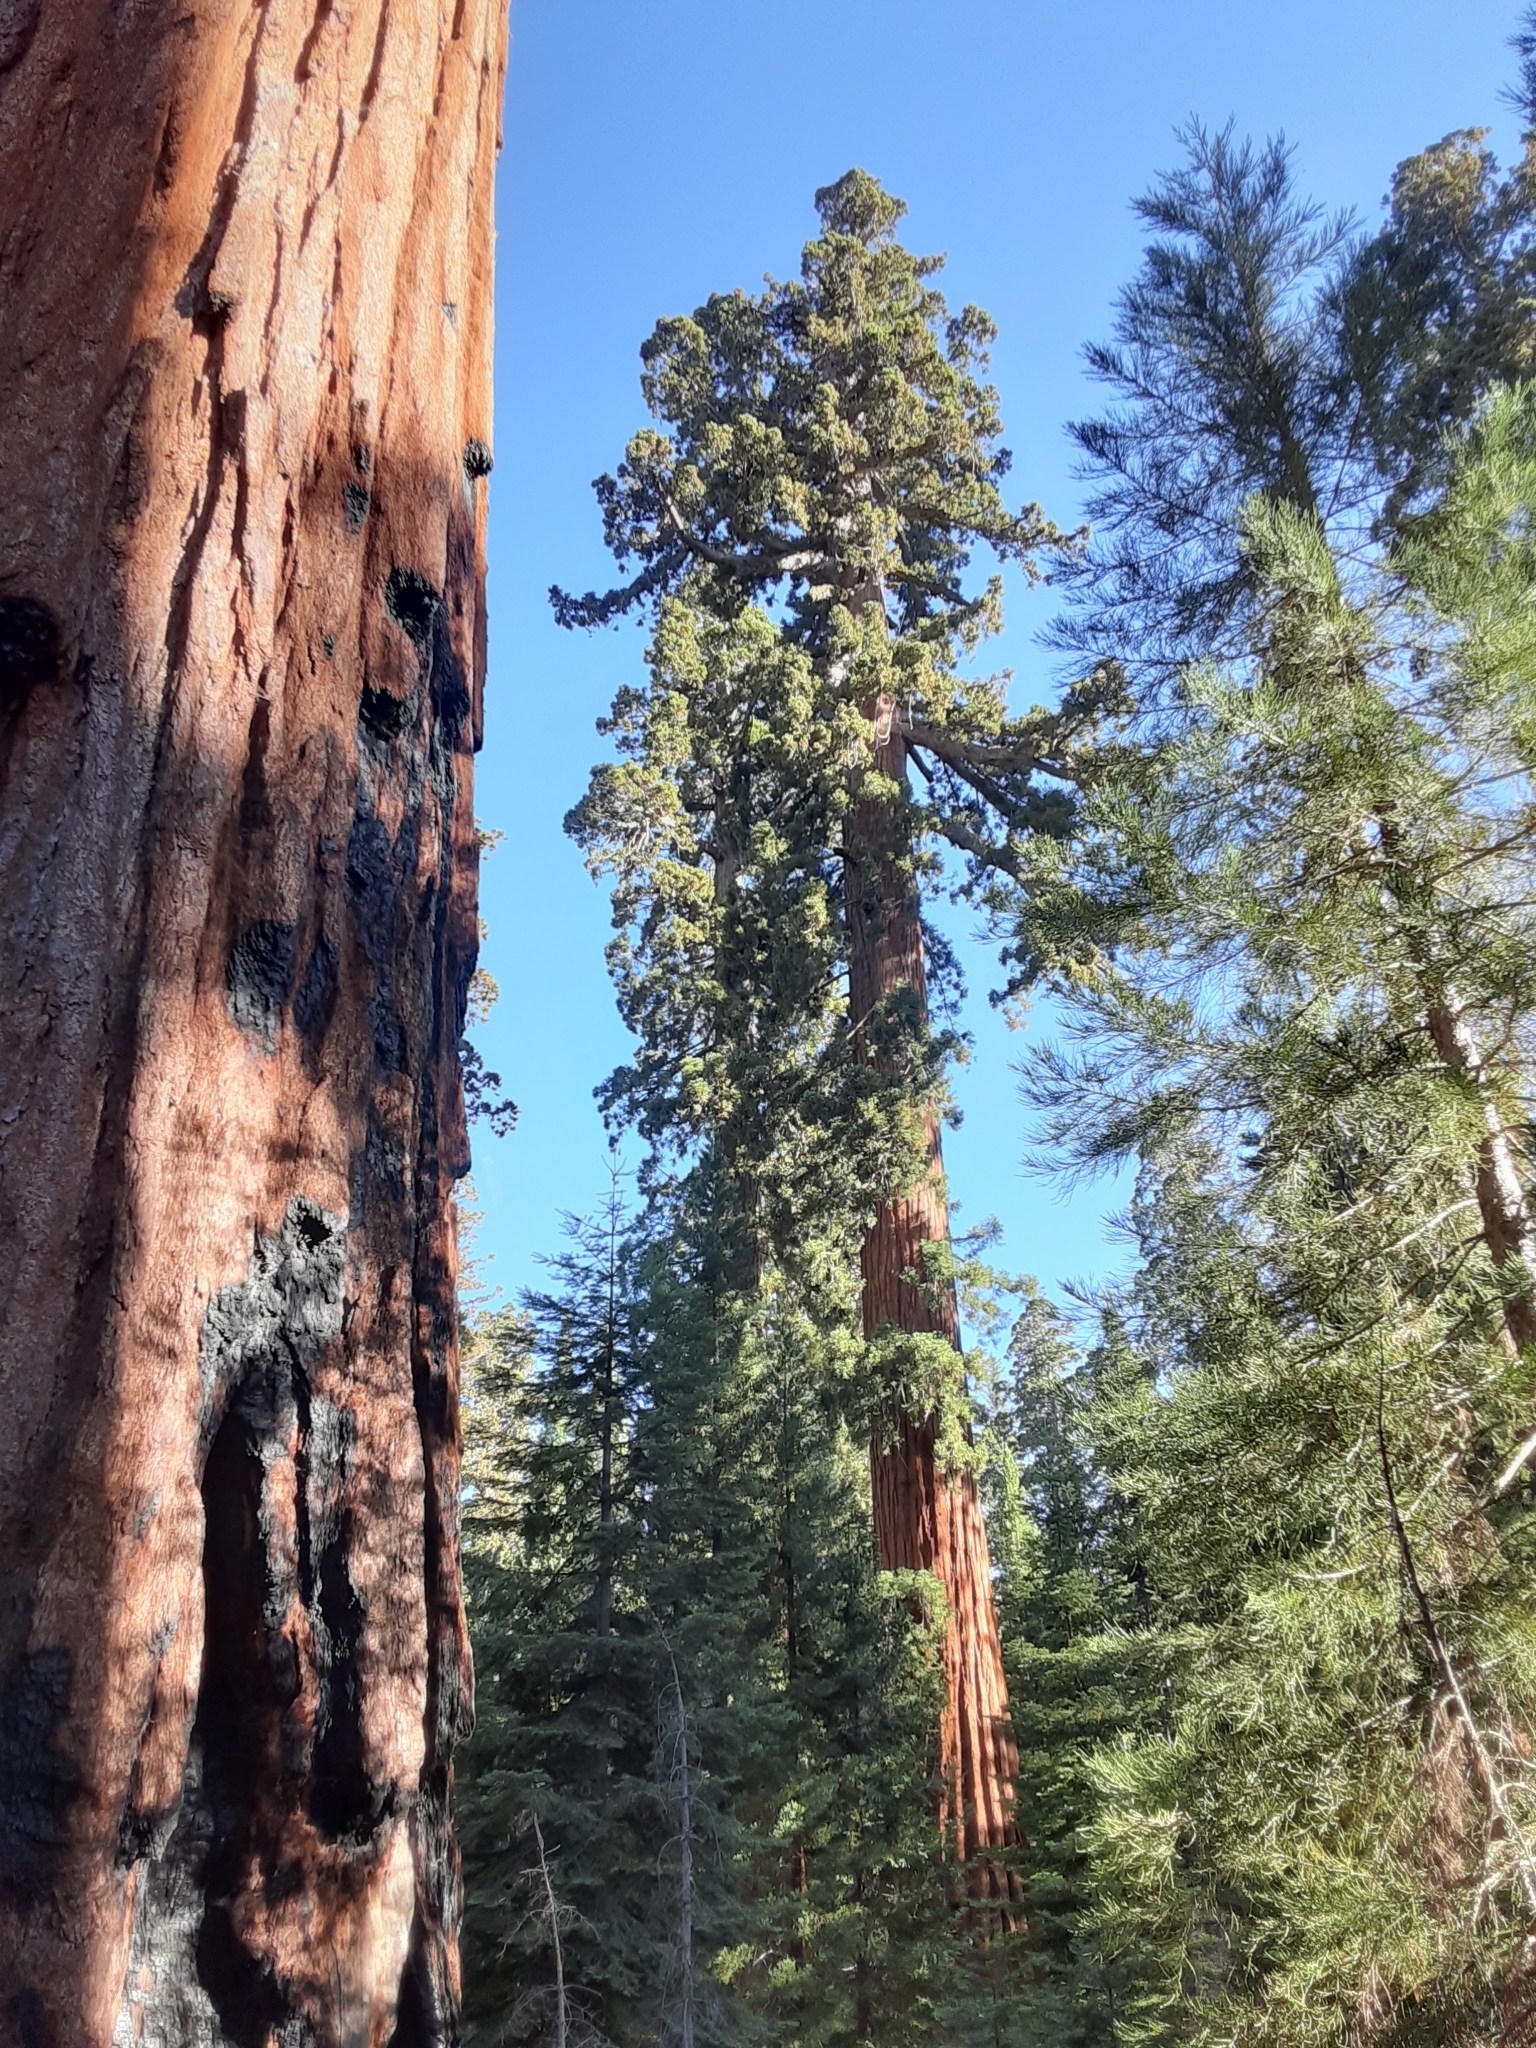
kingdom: Plantae
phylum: Tracheophyta
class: Pinopsida
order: Pinales
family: Cupressaceae
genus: Sequoiadendron
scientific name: Sequoiadendron giganteum
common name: Wellingtonia
